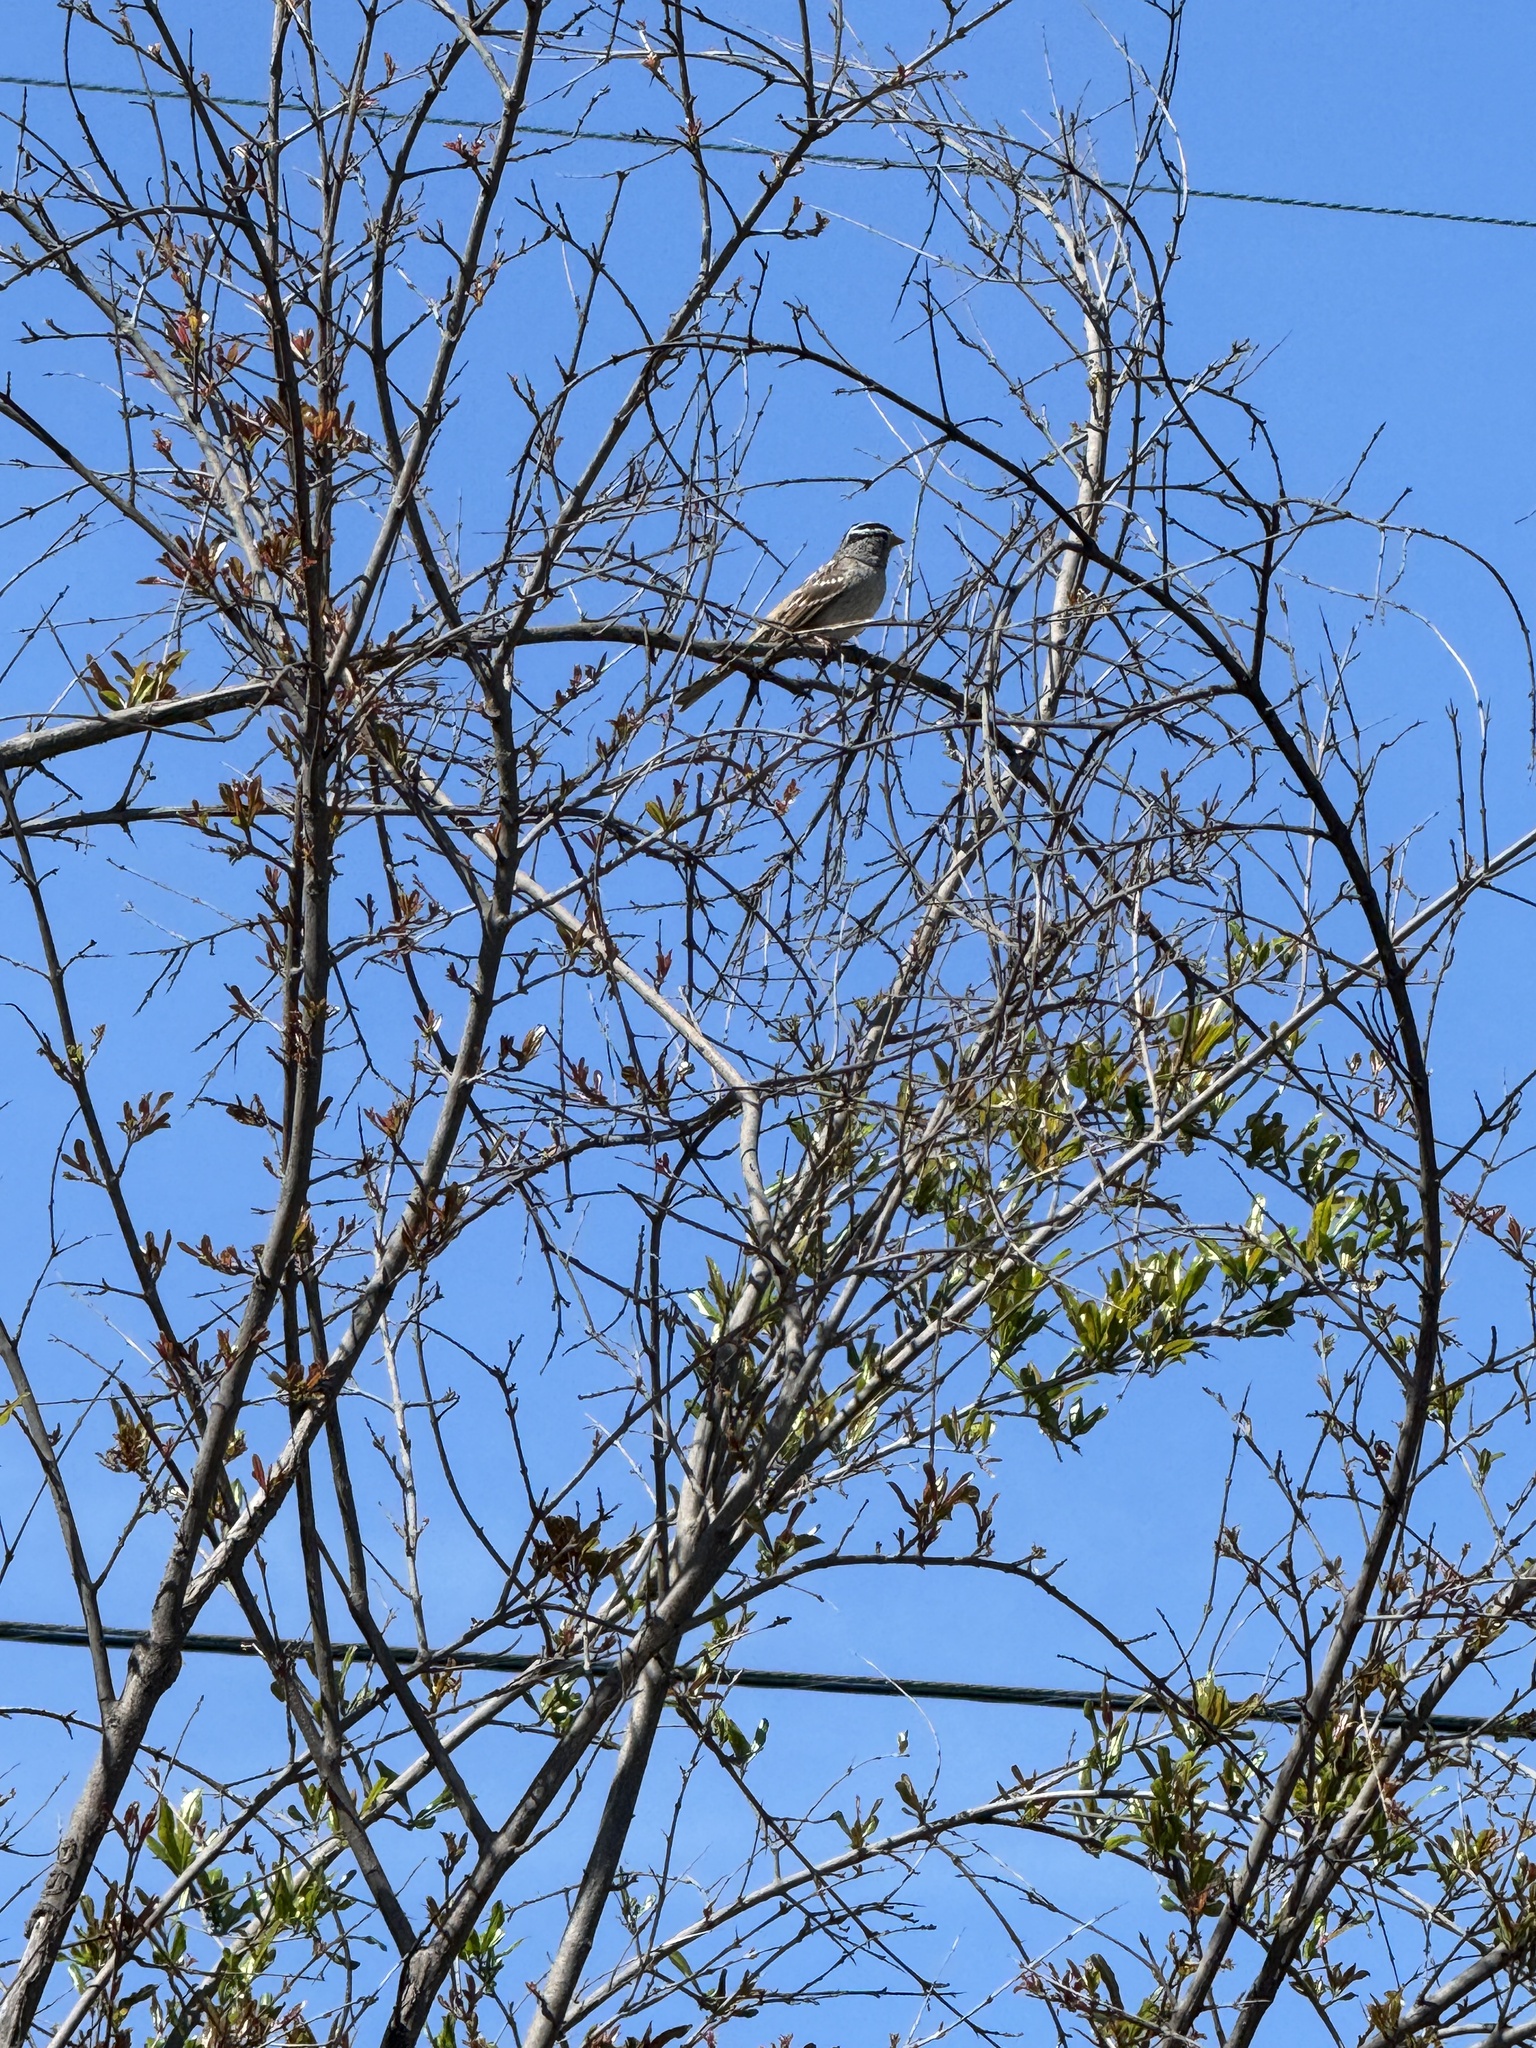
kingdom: Animalia
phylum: Chordata
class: Aves
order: Passeriformes
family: Passerellidae
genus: Zonotrichia
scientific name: Zonotrichia leucophrys
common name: White-crowned sparrow
